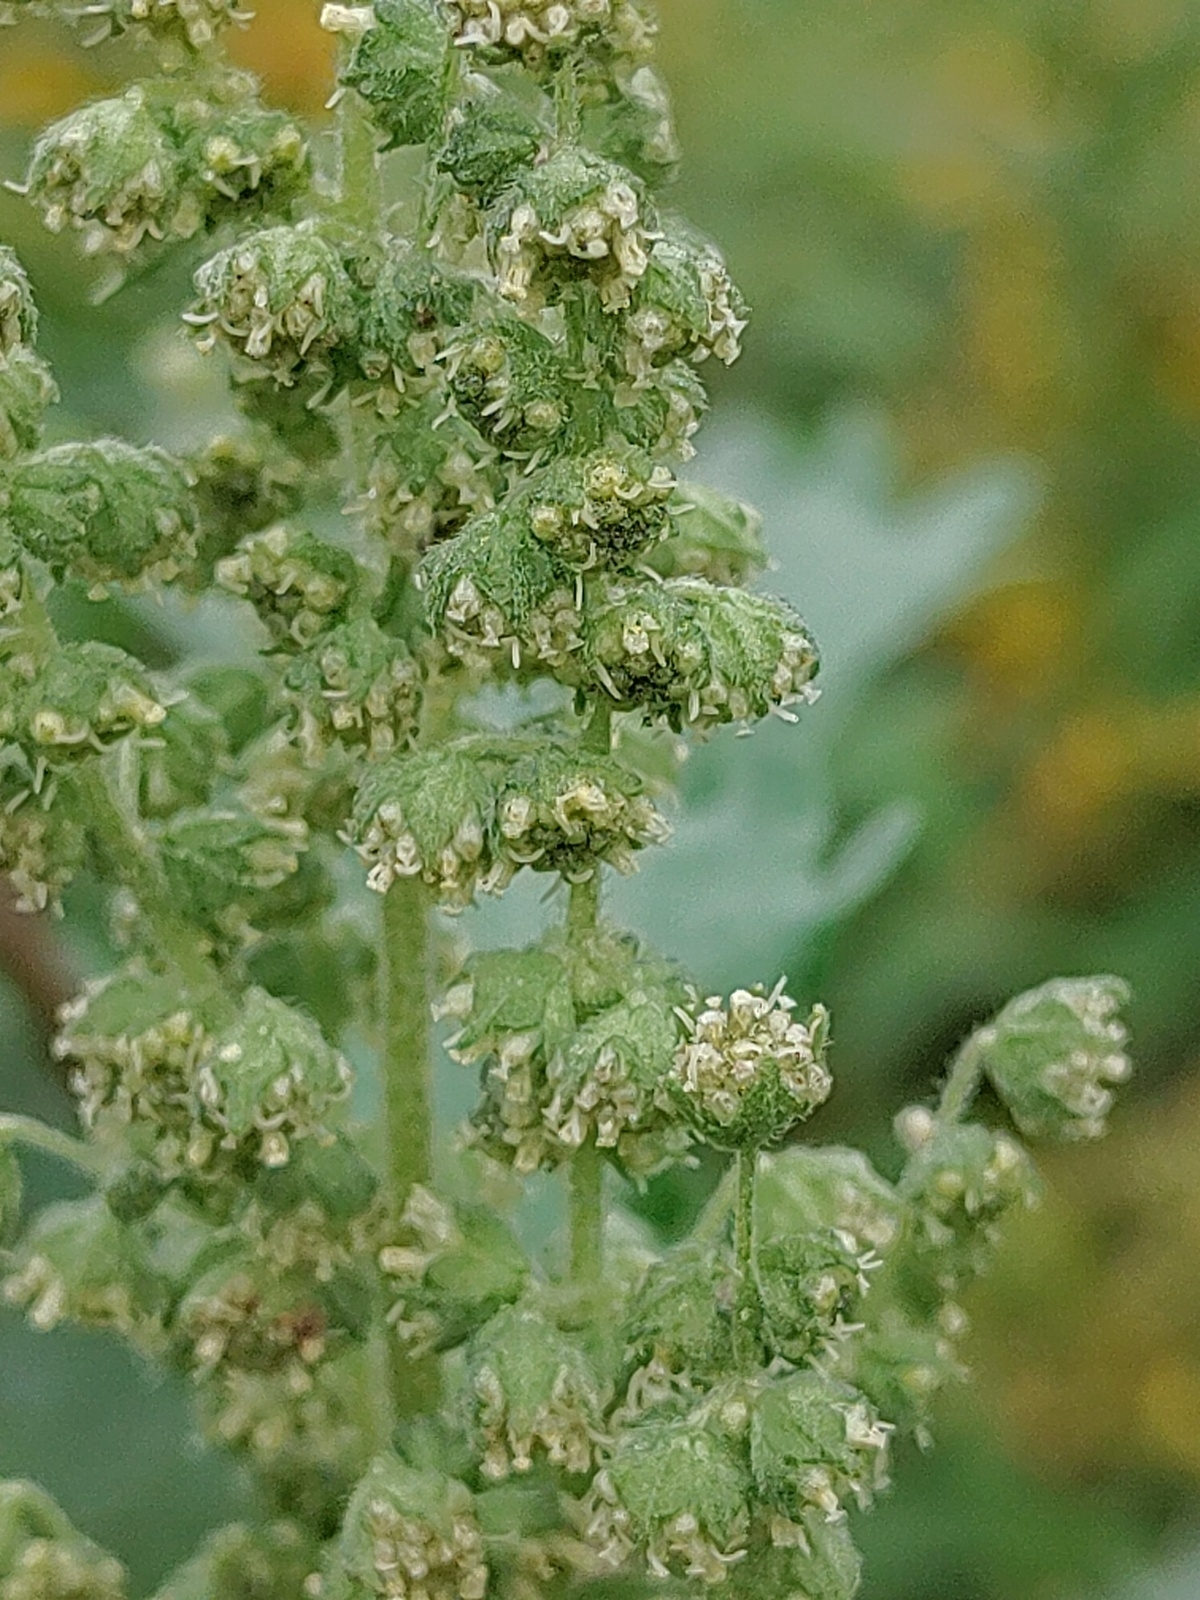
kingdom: Plantae
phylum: Tracheophyta
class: Magnoliopsida
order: Asterales
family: Asteraceae
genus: Cyclachaena
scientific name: Cyclachaena xanthiifolia
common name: Giant sumpweed
